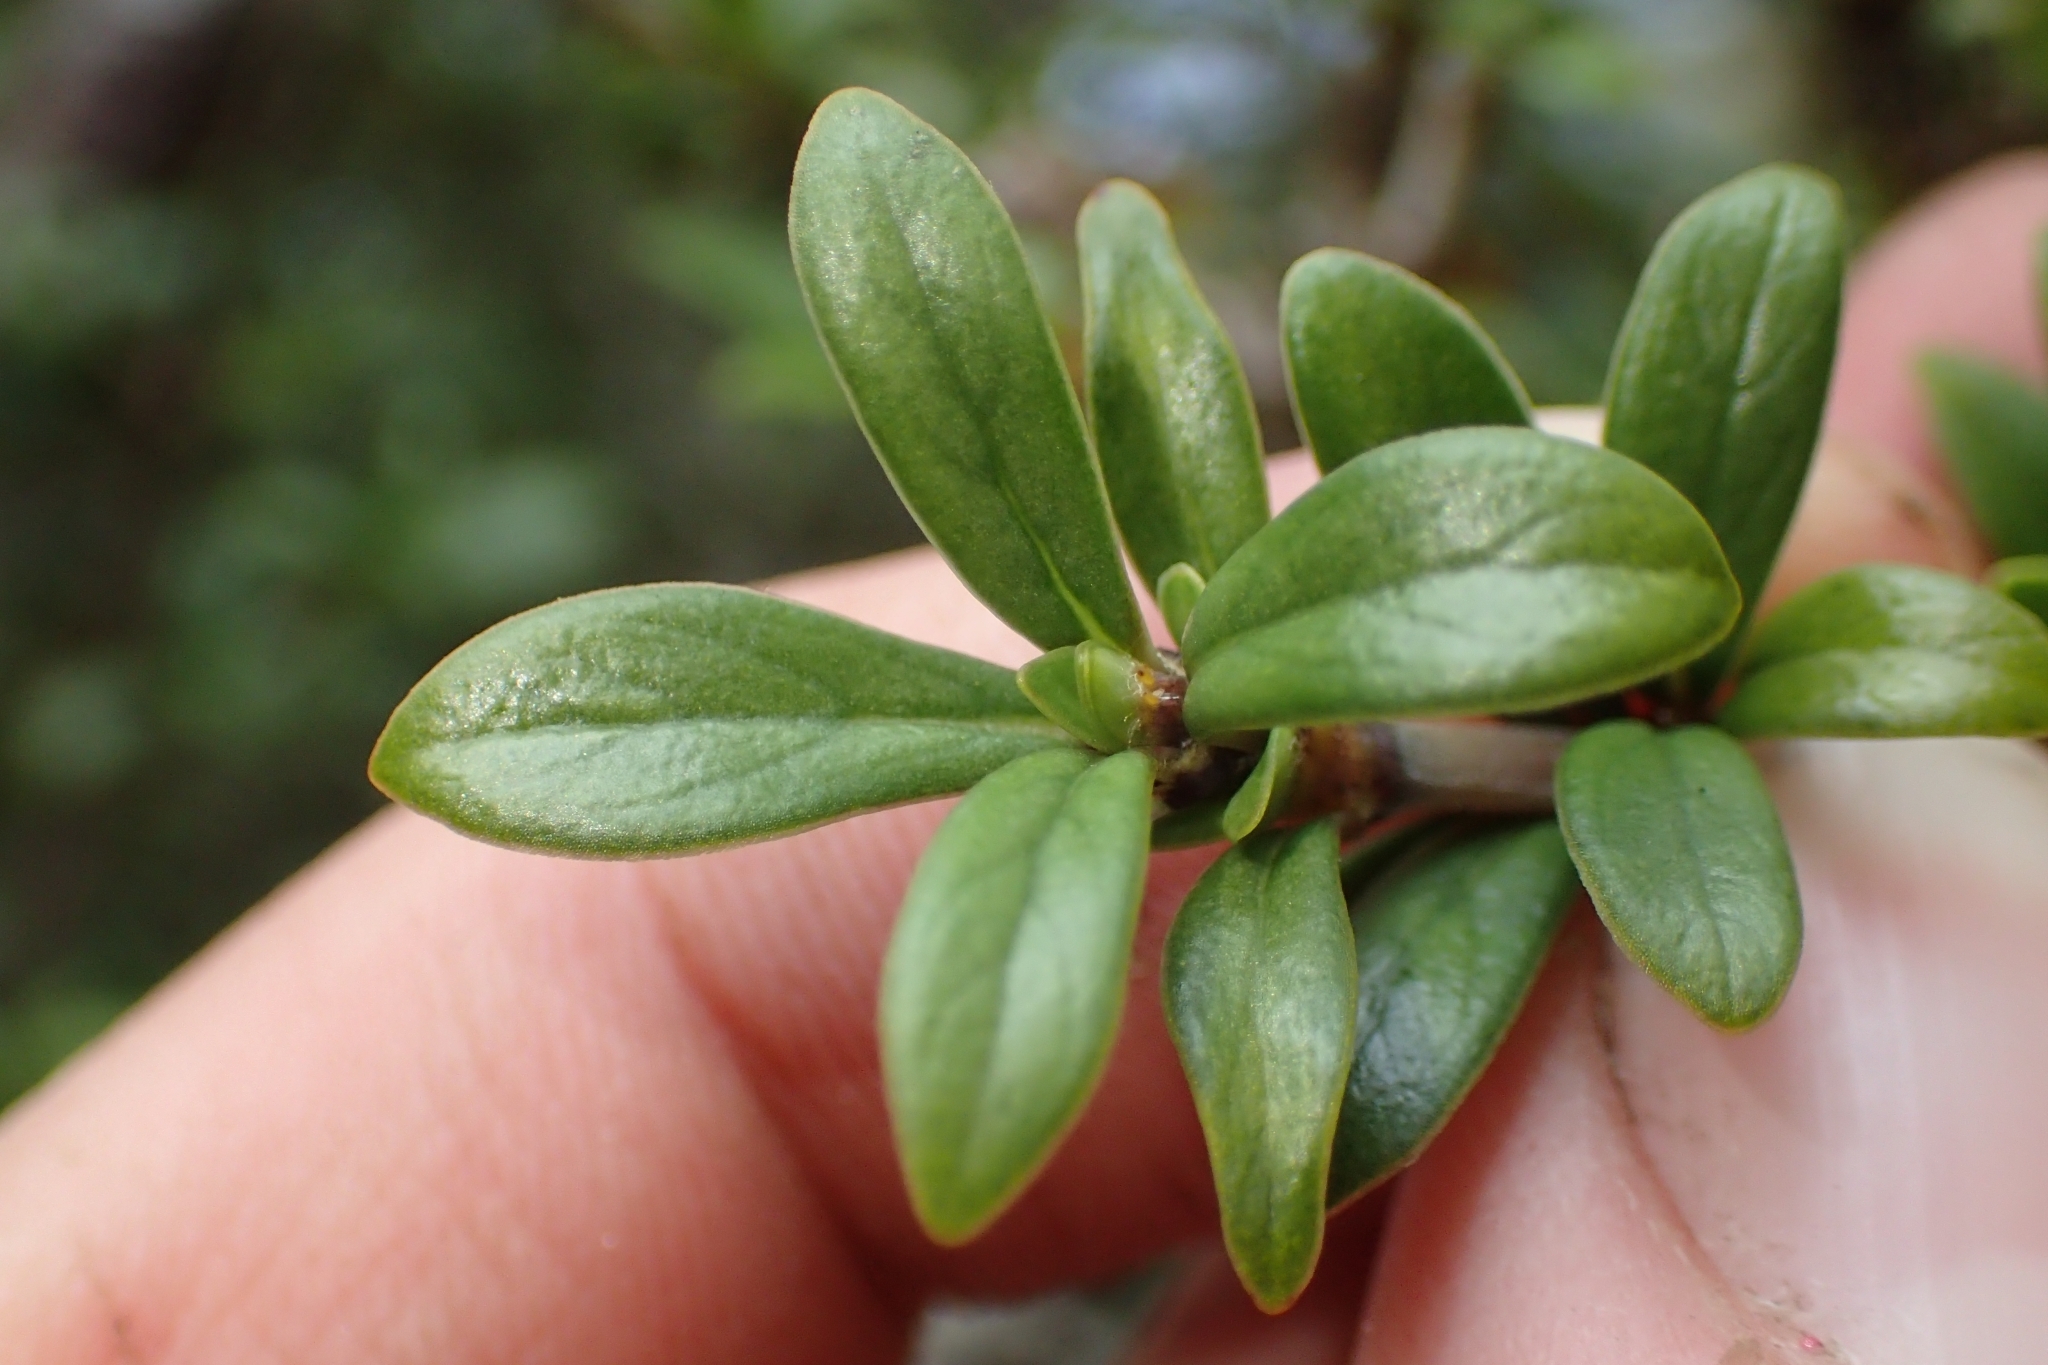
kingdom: Plantae
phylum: Tracheophyta
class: Magnoliopsida
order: Gentianales
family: Rubiaceae
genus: Coprosma
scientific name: Coprosma pseudocuneata
